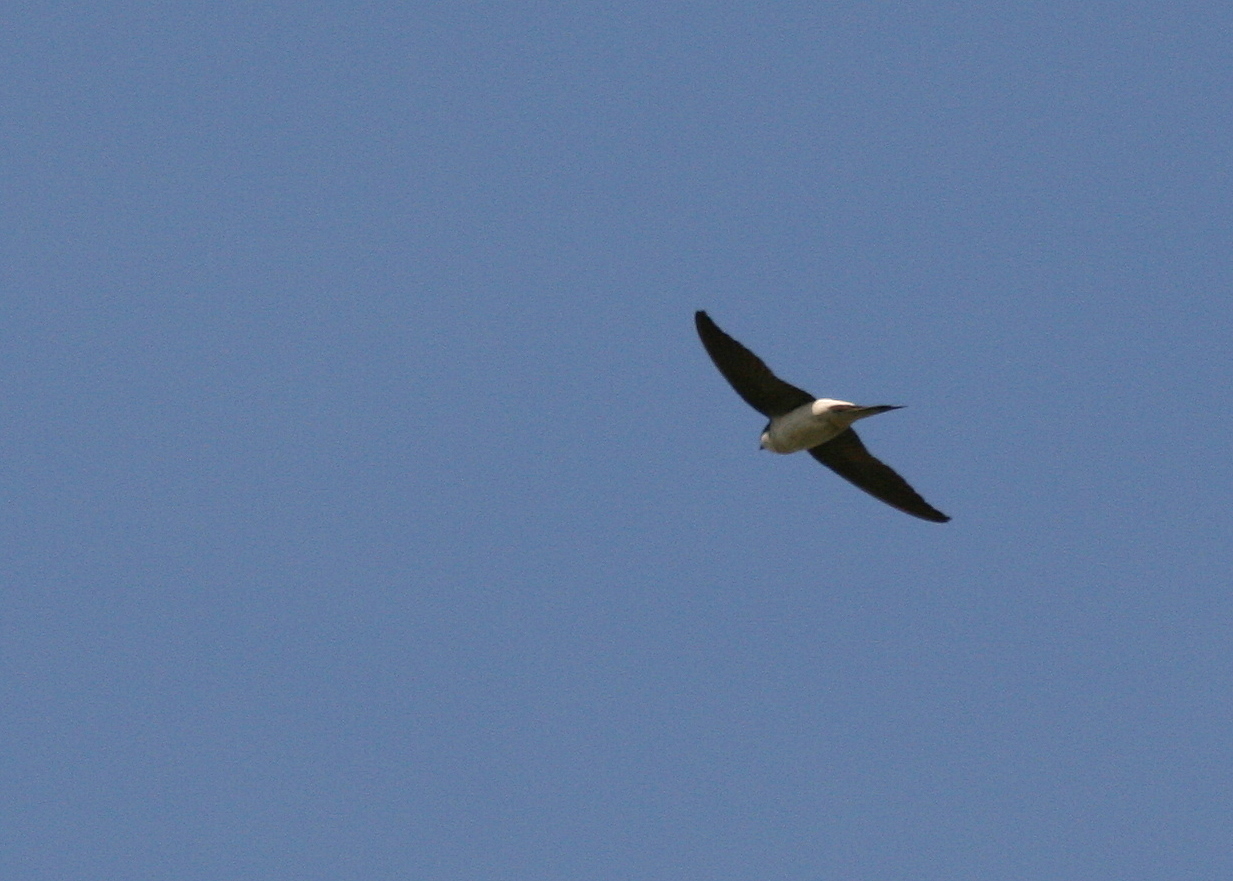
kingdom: Animalia
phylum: Chordata
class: Aves
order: Passeriformes
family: Hirundinidae
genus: Delichon
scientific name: Delichon urbicum
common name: Common house martin
